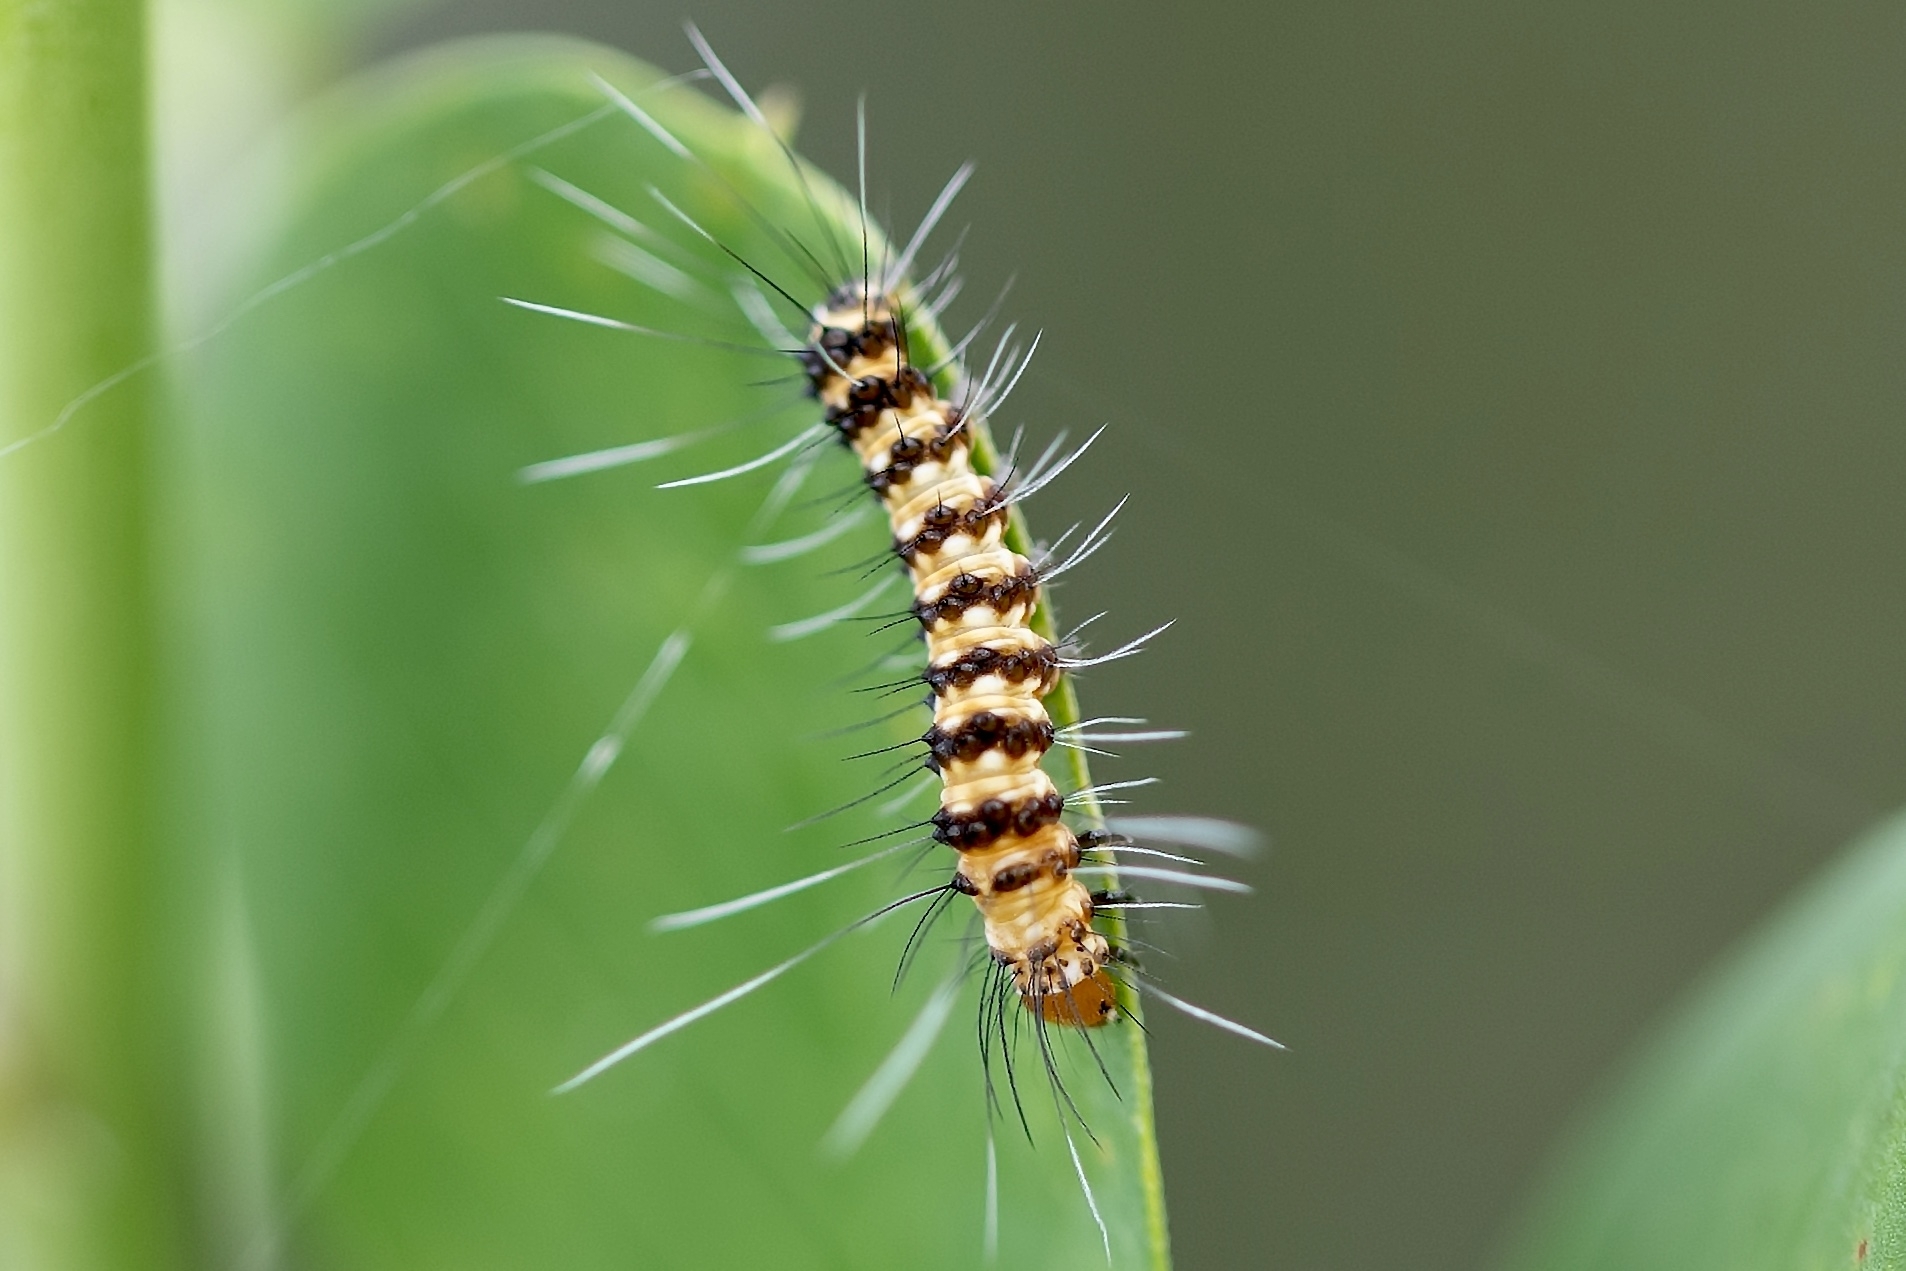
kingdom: Animalia
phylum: Arthropoda
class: Insecta
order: Lepidoptera
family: Erebidae
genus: Utetheisa
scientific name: Utetheisa ornatrix
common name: Beautiful utetheisa
